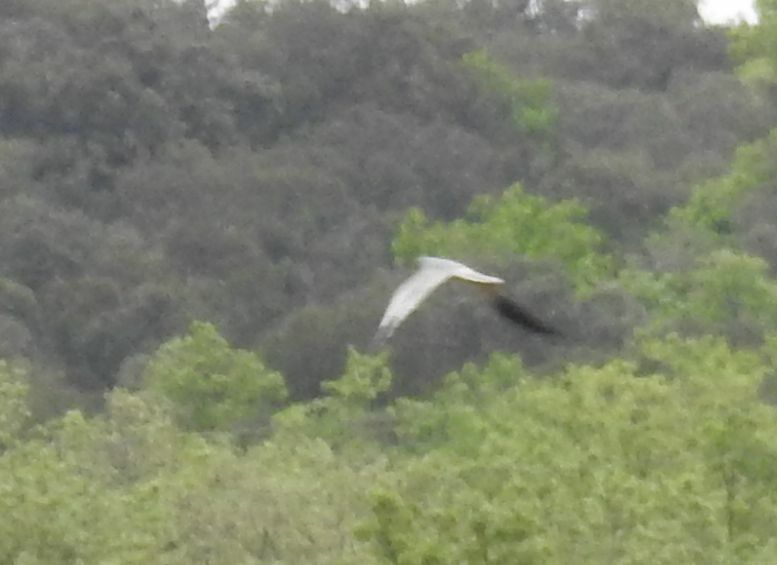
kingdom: Animalia
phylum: Chordata
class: Aves
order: Accipitriformes
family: Accipitridae
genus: Circus
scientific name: Circus pygargus
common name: Montagu's harrier
